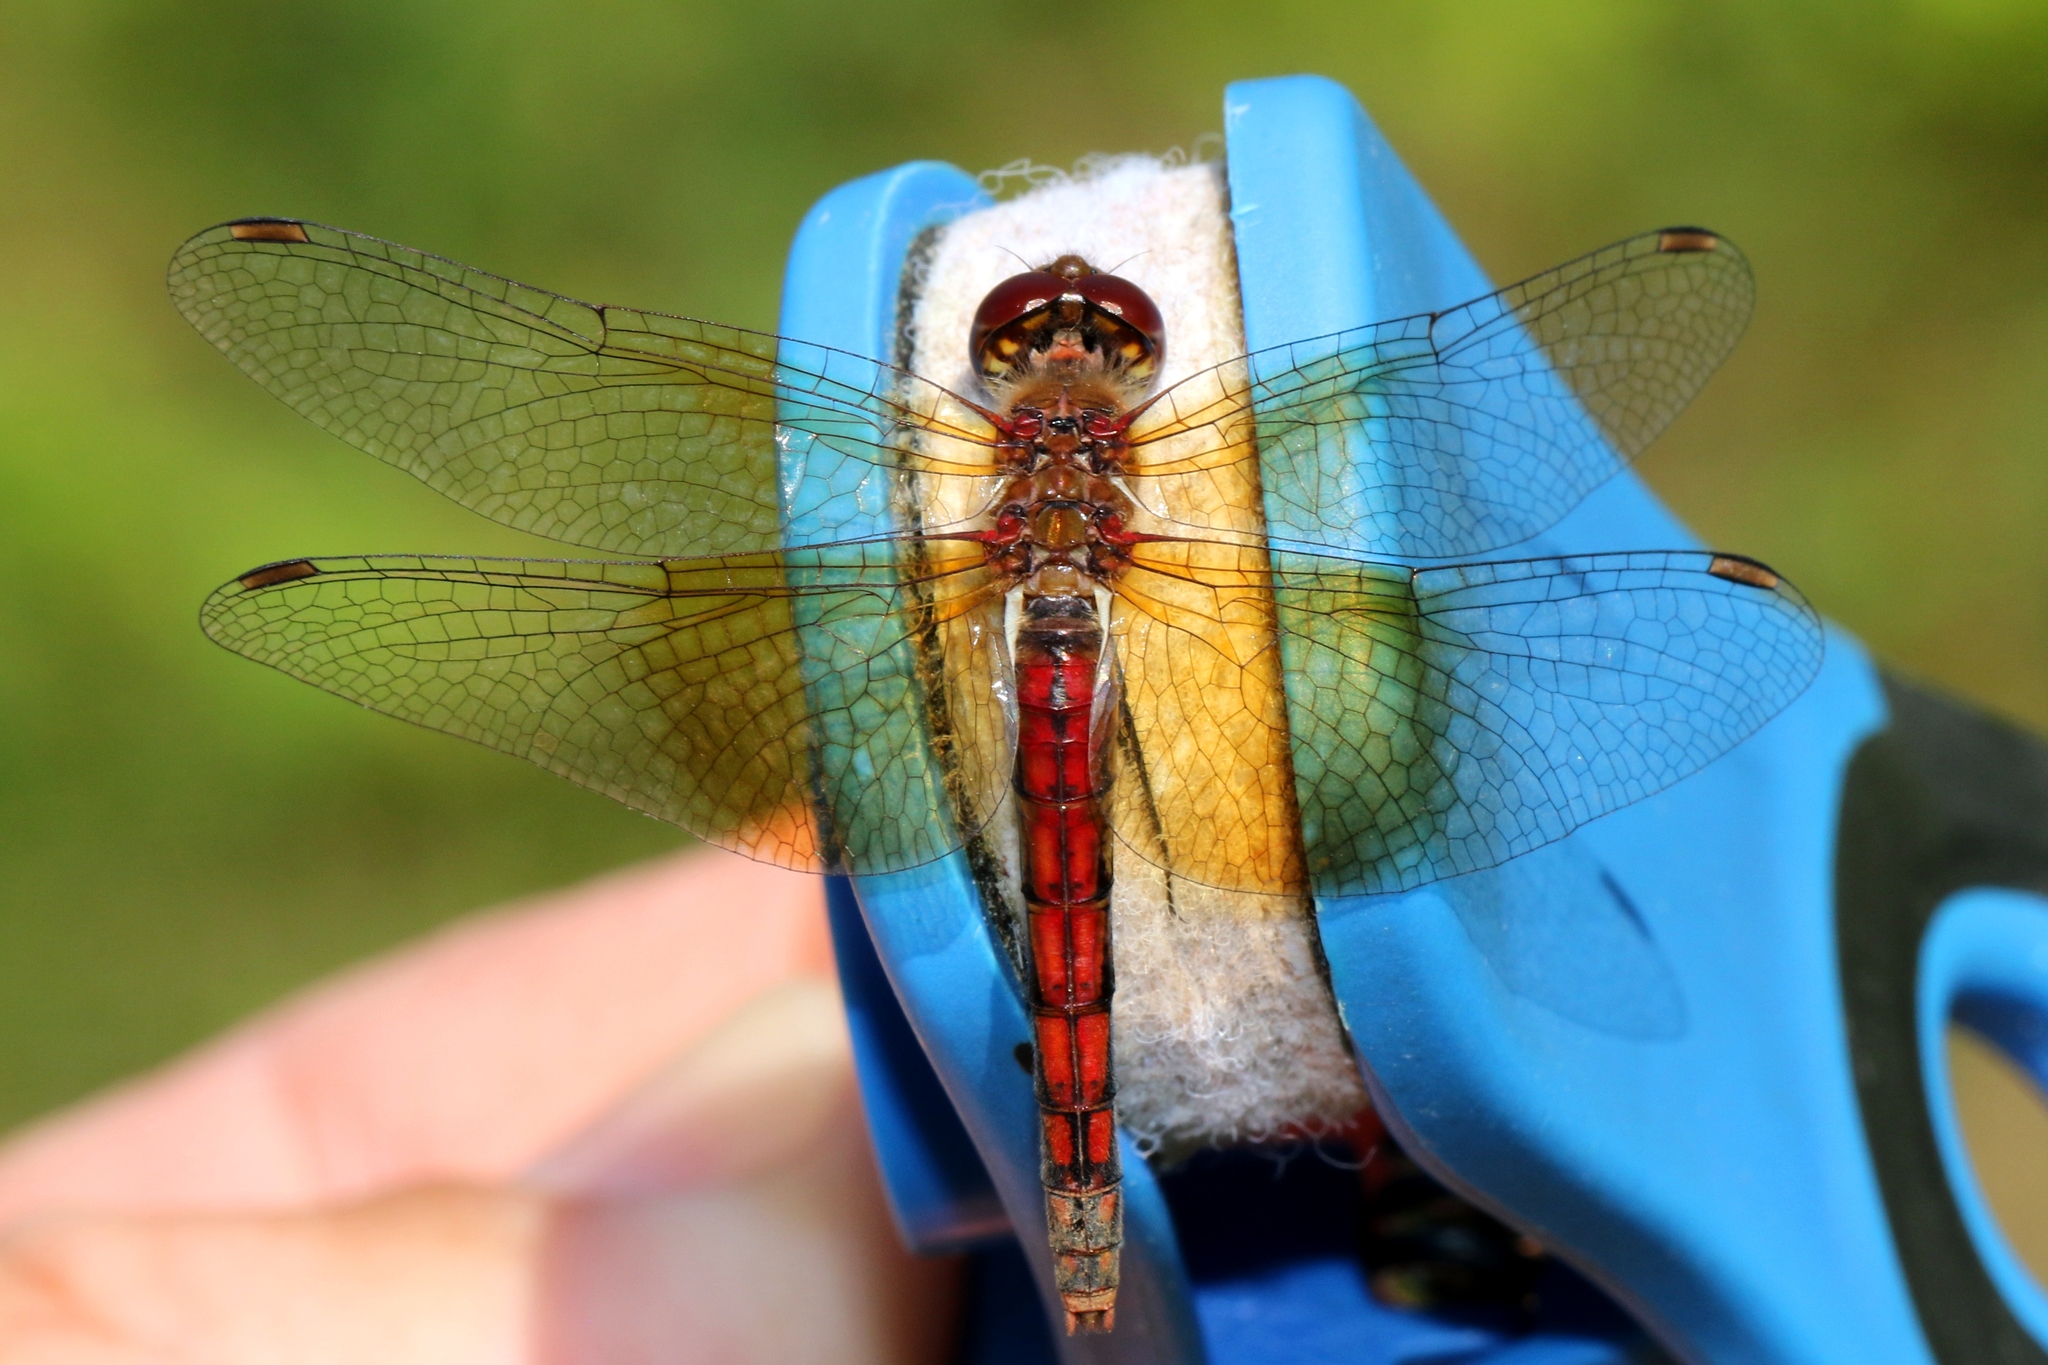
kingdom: Animalia
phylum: Arthropoda
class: Insecta
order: Odonata
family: Libellulidae
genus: Sympetrum
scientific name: Sympetrum semicinctum
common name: Band-winged meadowhawk
